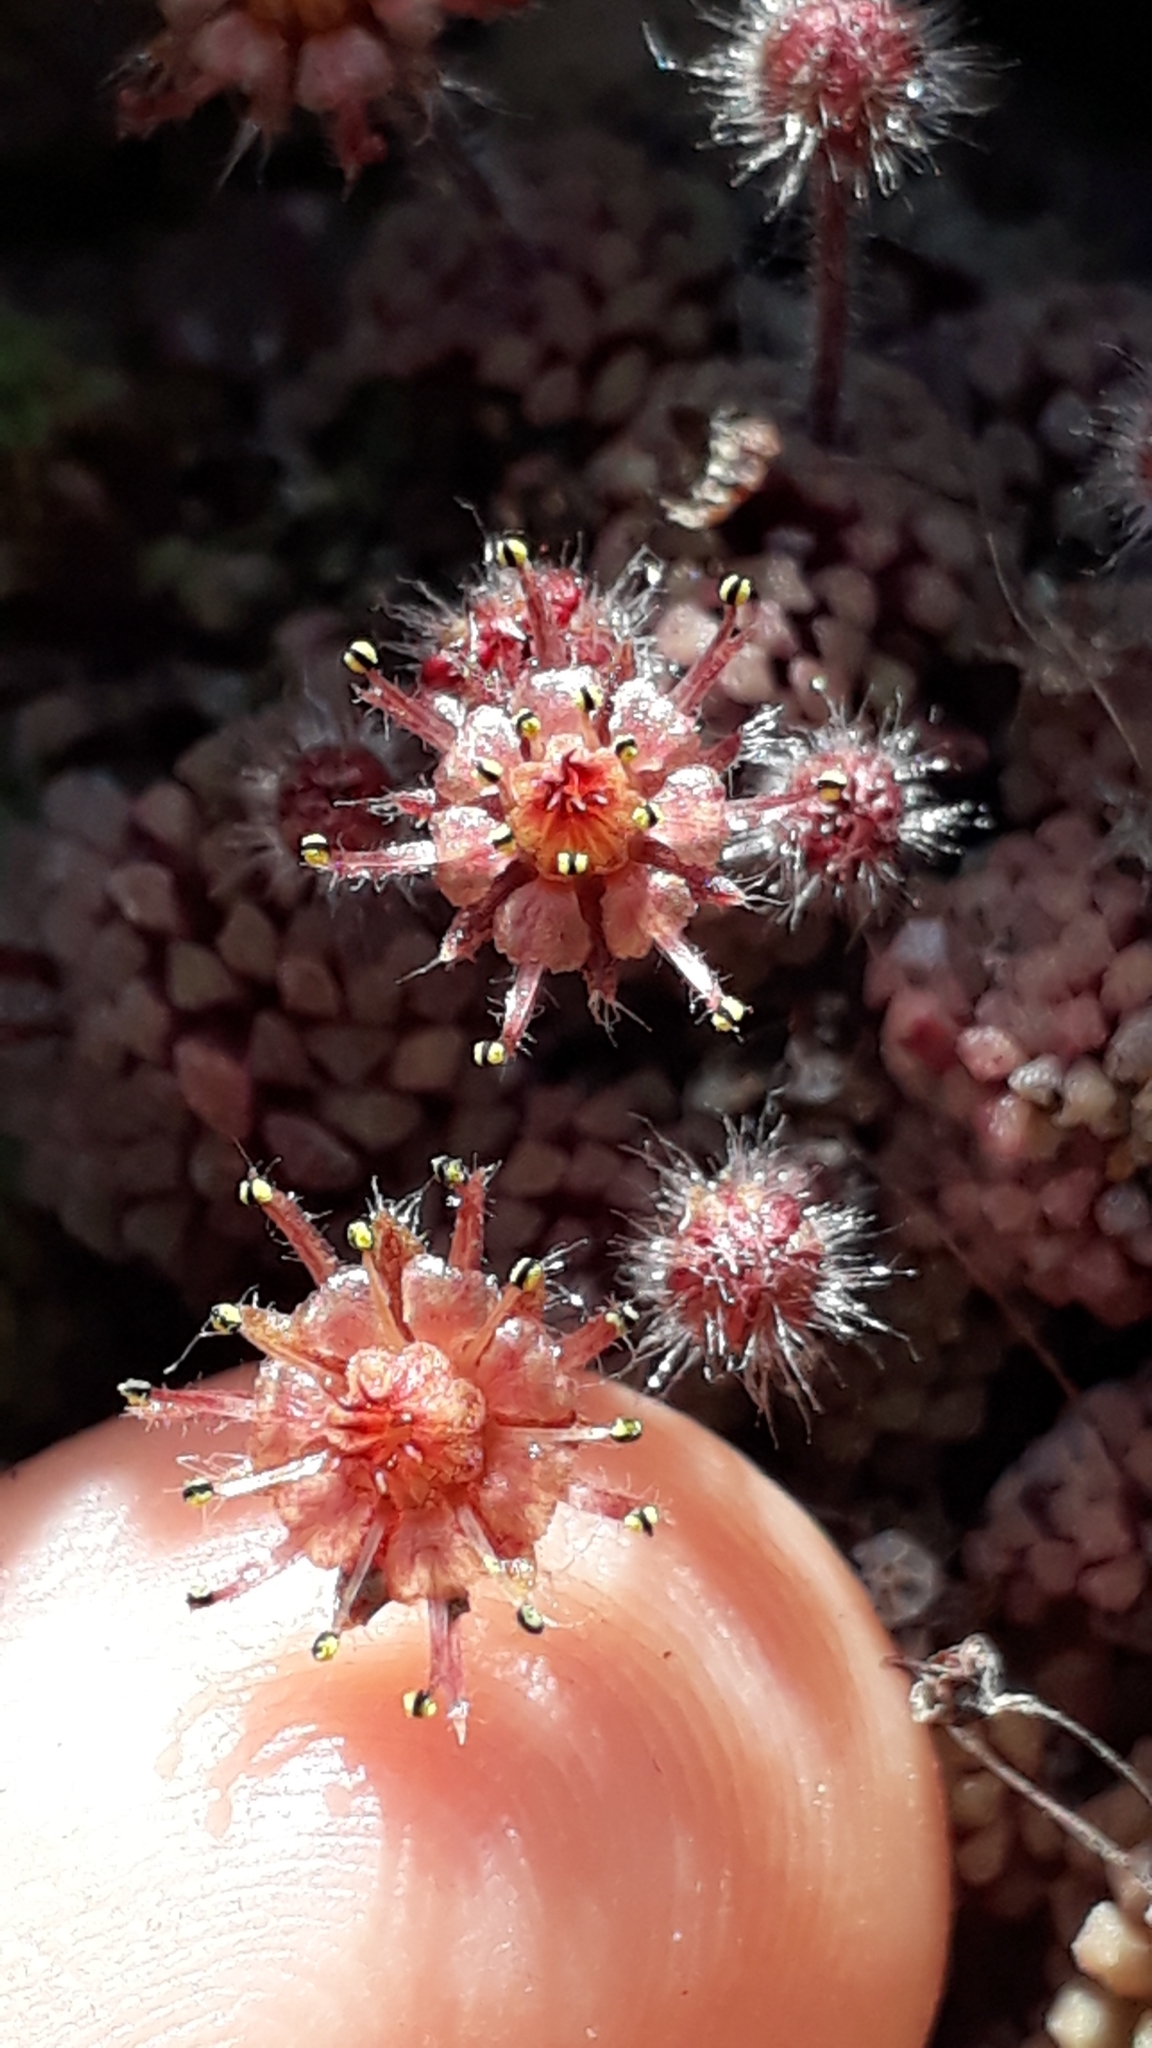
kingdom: Plantae
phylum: Tracheophyta
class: Magnoliopsida
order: Saxifragales
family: Crassulaceae
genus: Monanthes
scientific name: Monanthes polyphylla
